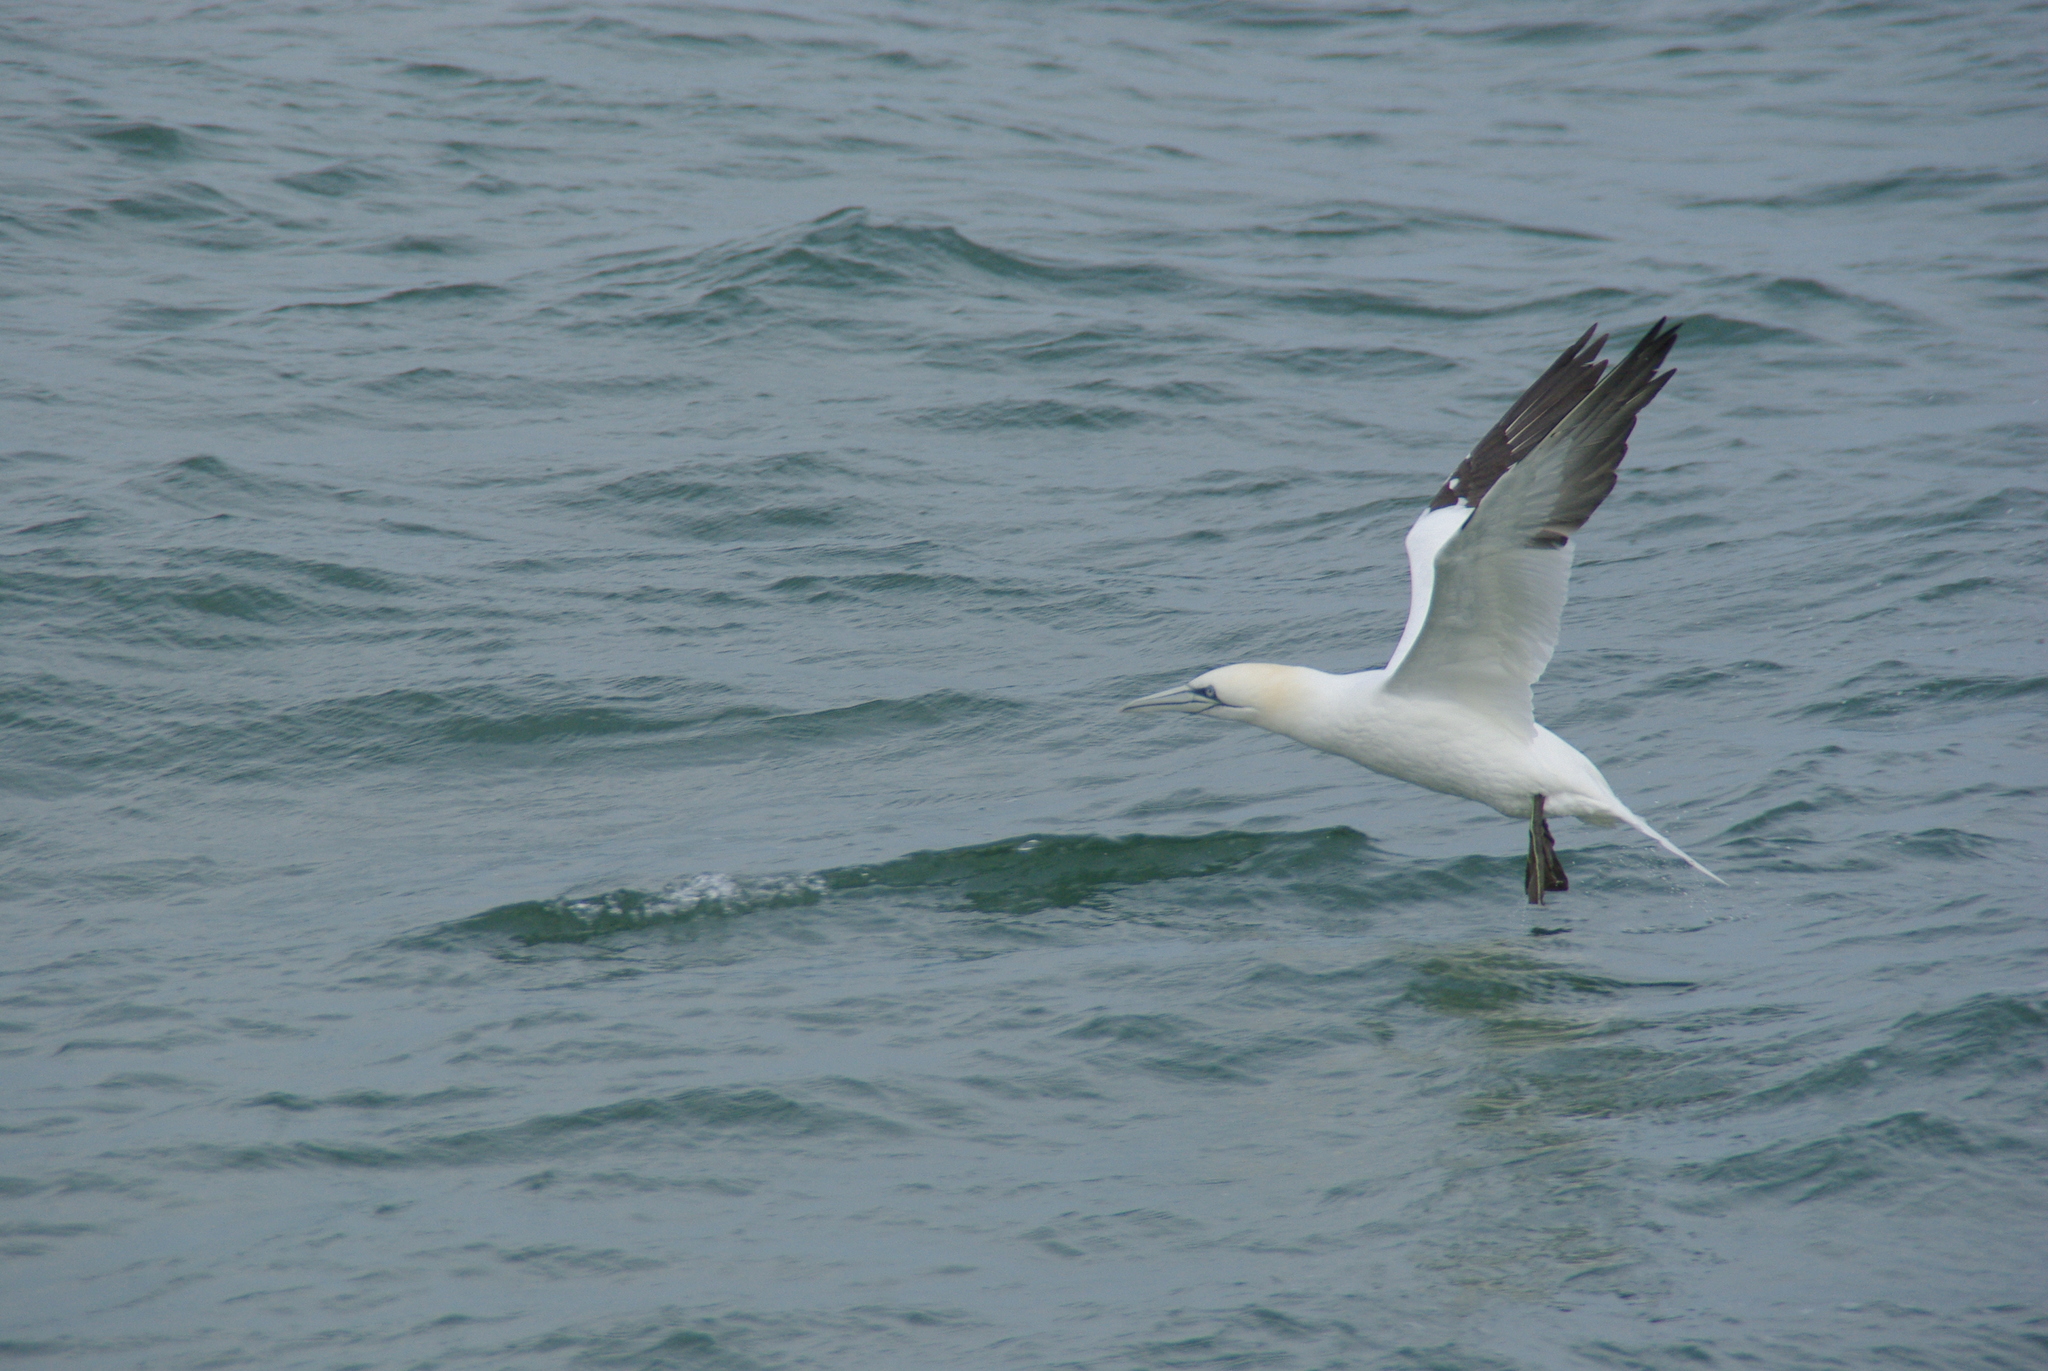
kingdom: Animalia
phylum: Chordata
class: Aves
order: Suliformes
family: Sulidae
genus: Morus
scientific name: Morus bassanus
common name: Northern gannet
